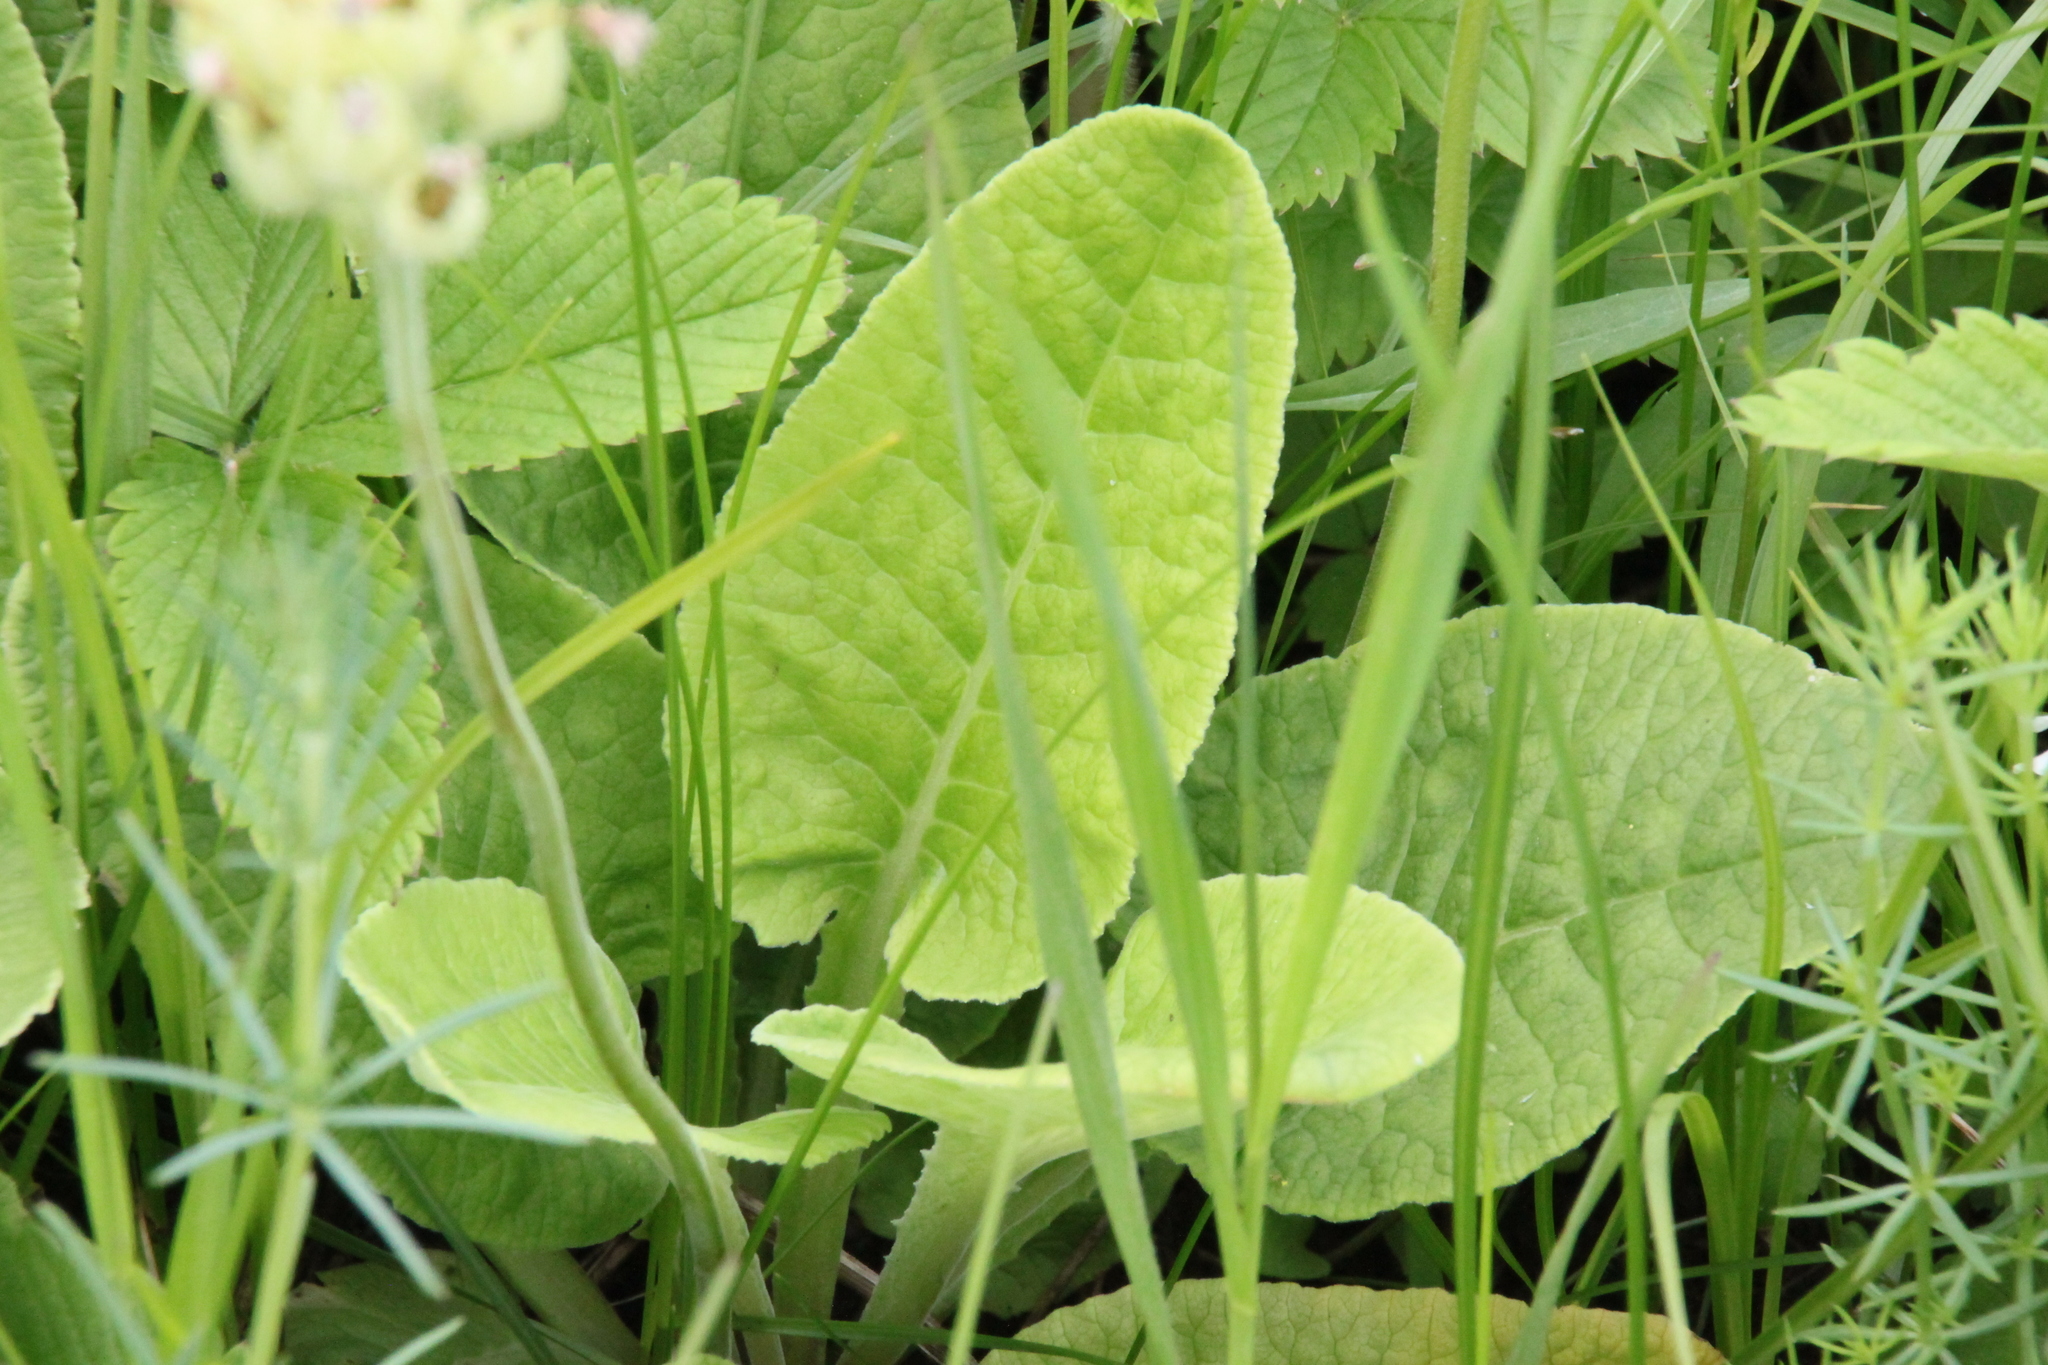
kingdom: Plantae
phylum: Tracheophyta
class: Magnoliopsida
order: Ericales
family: Primulaceae
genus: Primula
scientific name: Primula veris
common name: Cowslip
